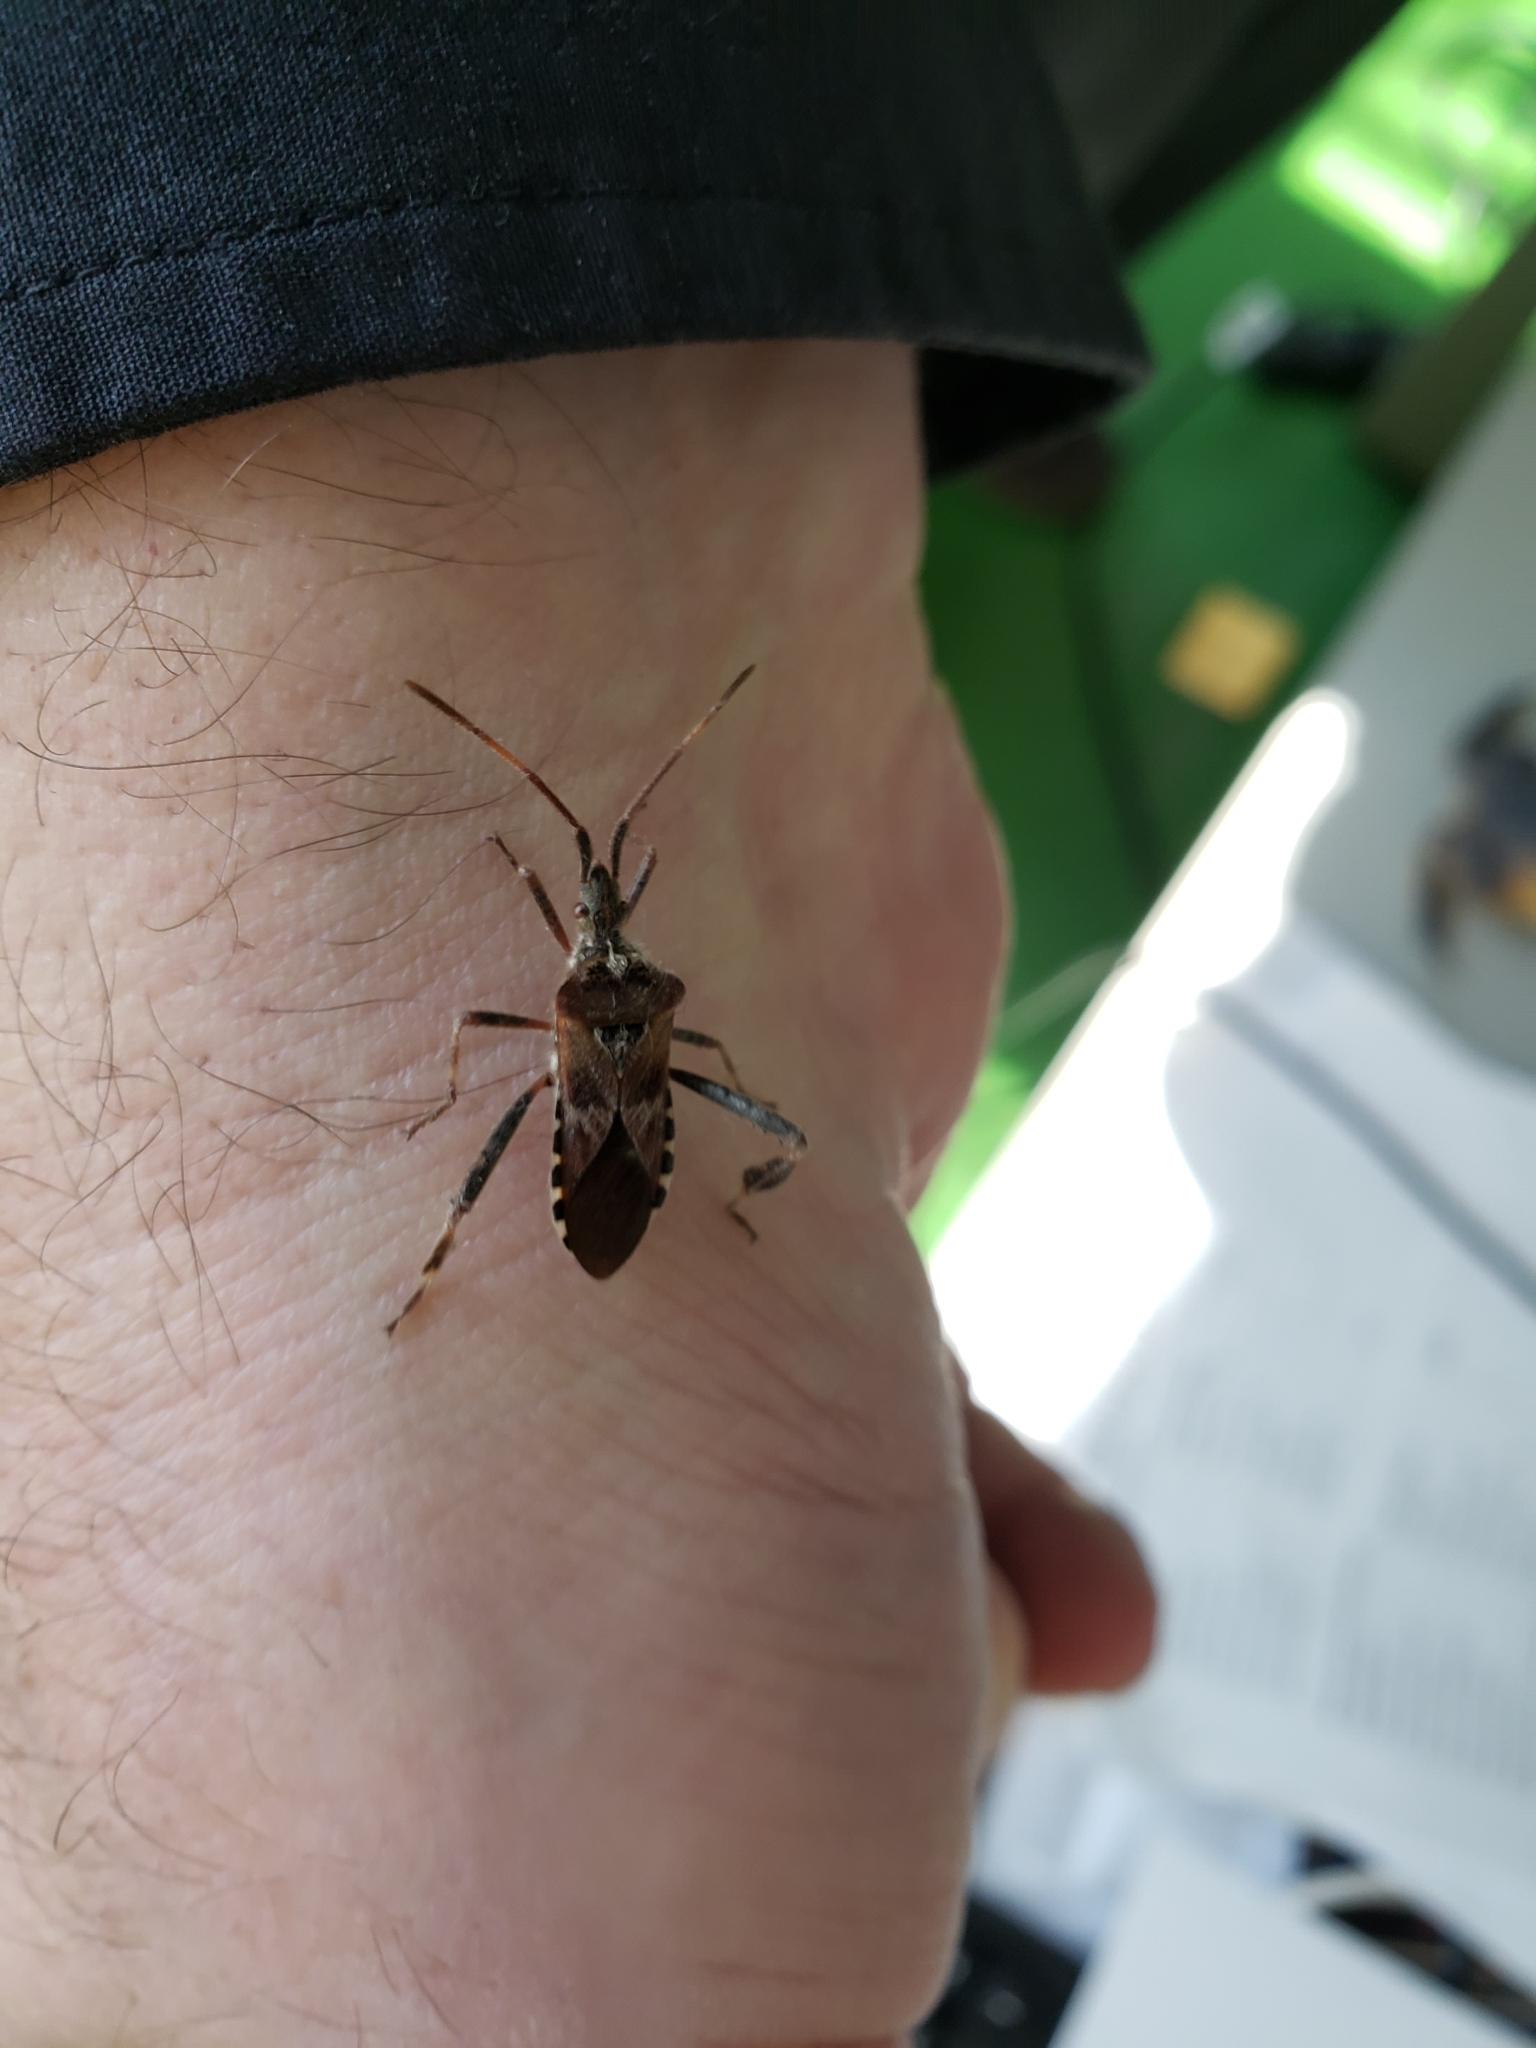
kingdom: Animalia
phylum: Arthropoda
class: Insecta
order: Hemiptera
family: Coreidae
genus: Leptoglossus
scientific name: Leptoglossus occidentalis
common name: Western conifer-seed bug
